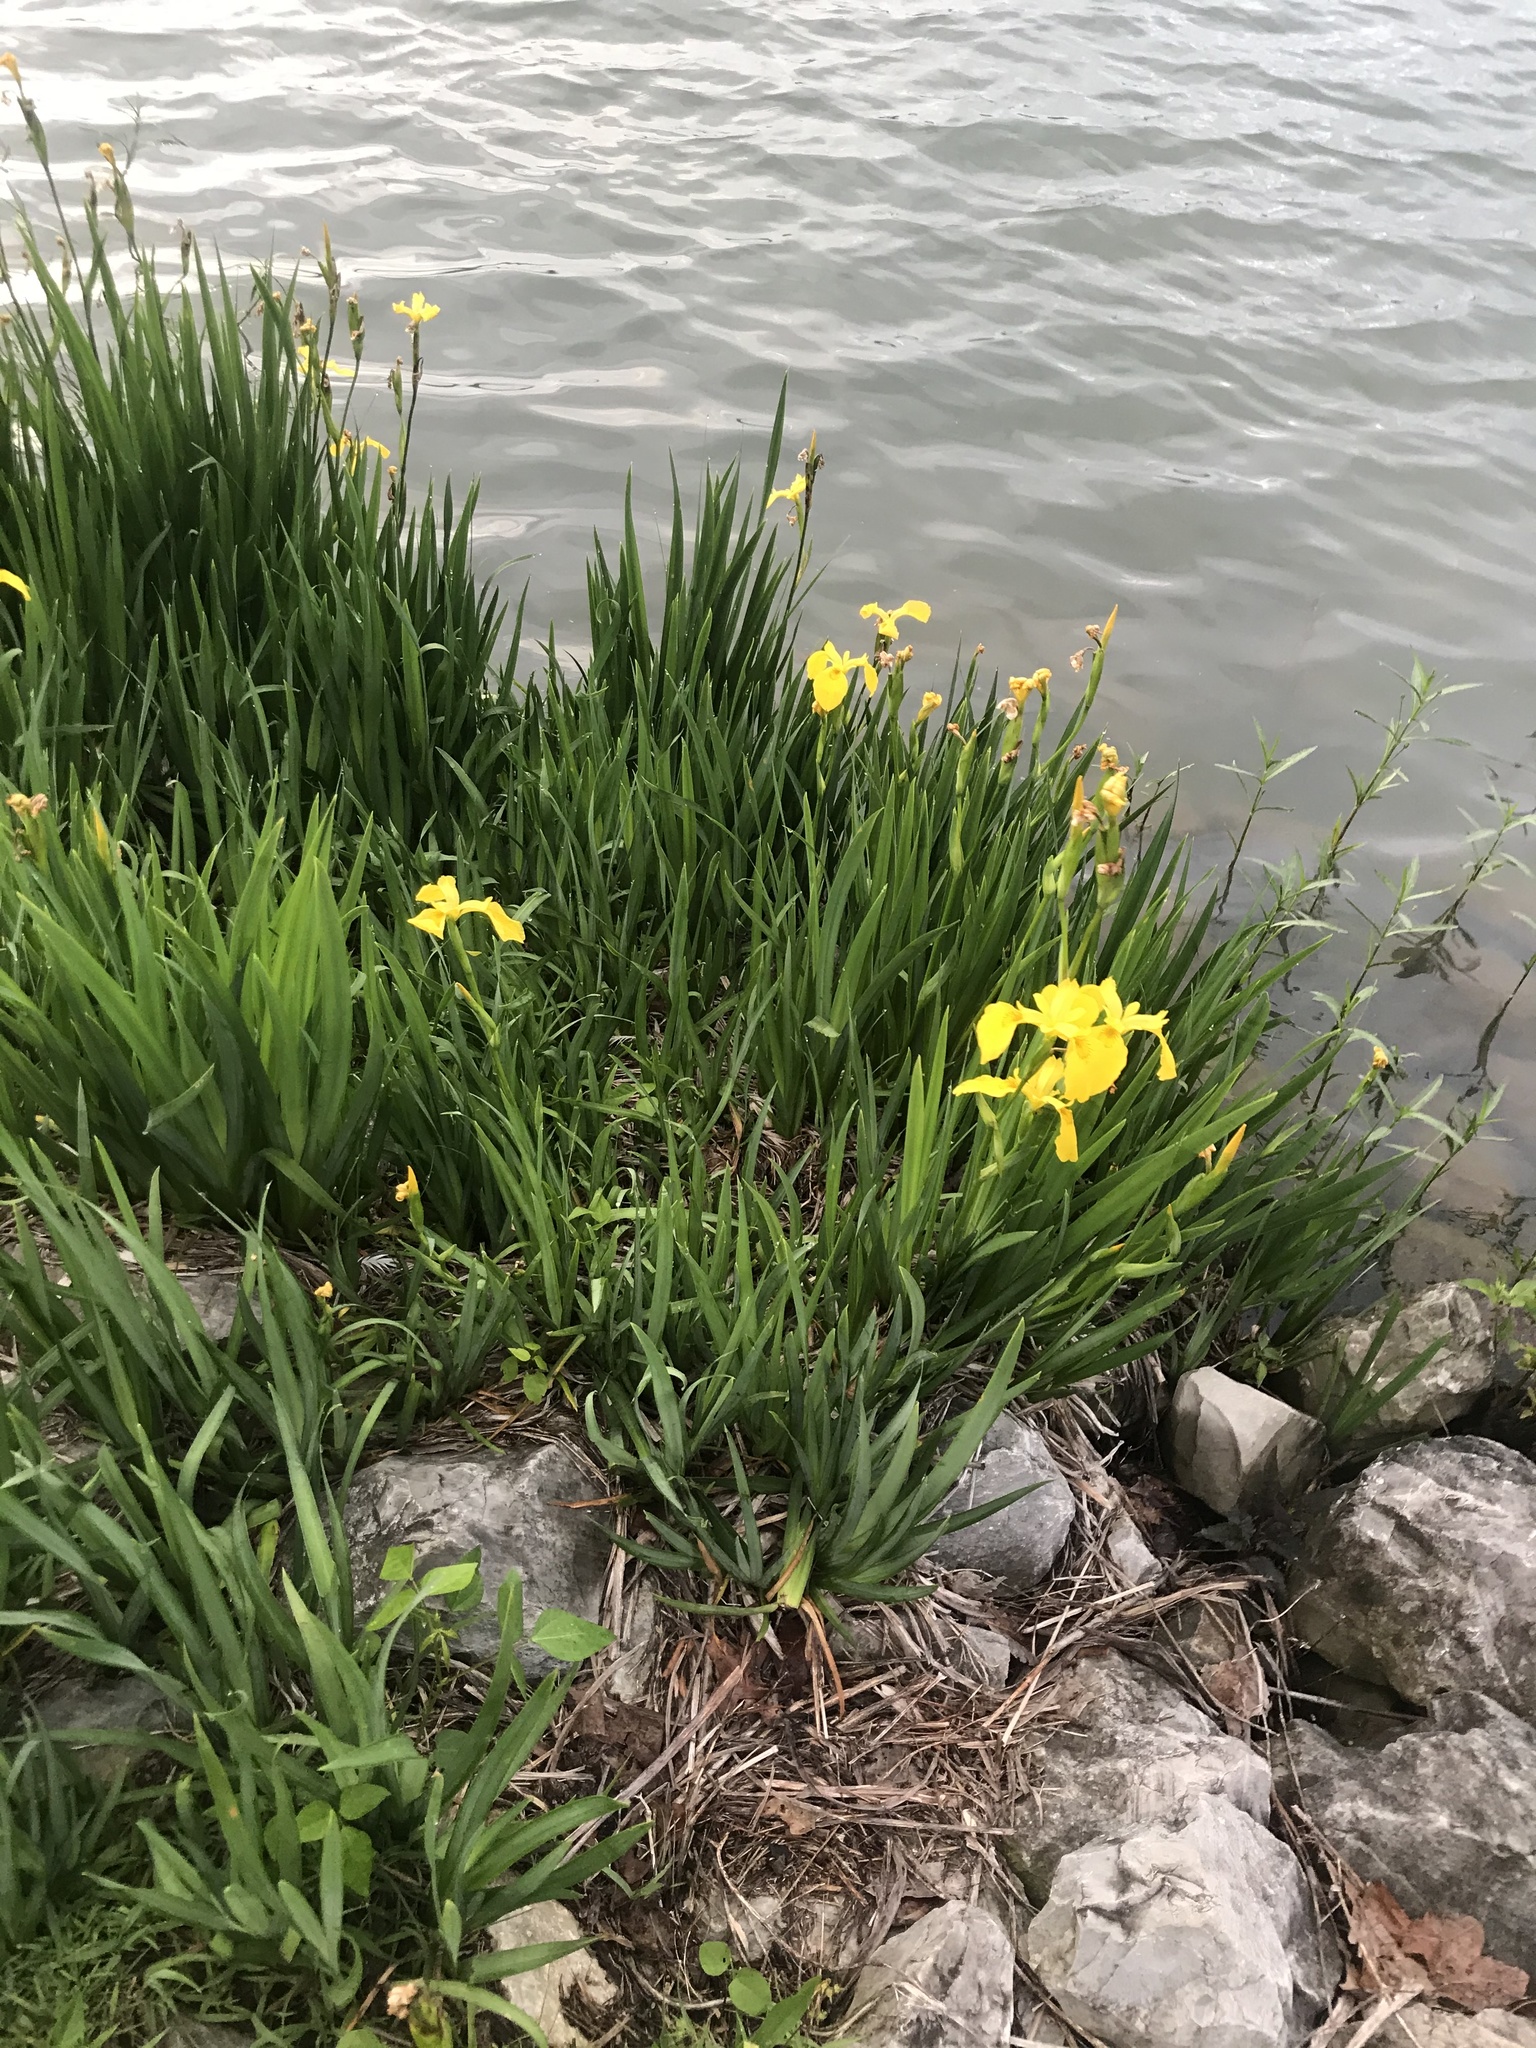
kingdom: Plantae
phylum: Tracheophyta
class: Liliopsida
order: Asparagales
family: Iridaceae
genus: Iris
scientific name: Iris pseudacorus
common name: Yellow flag
